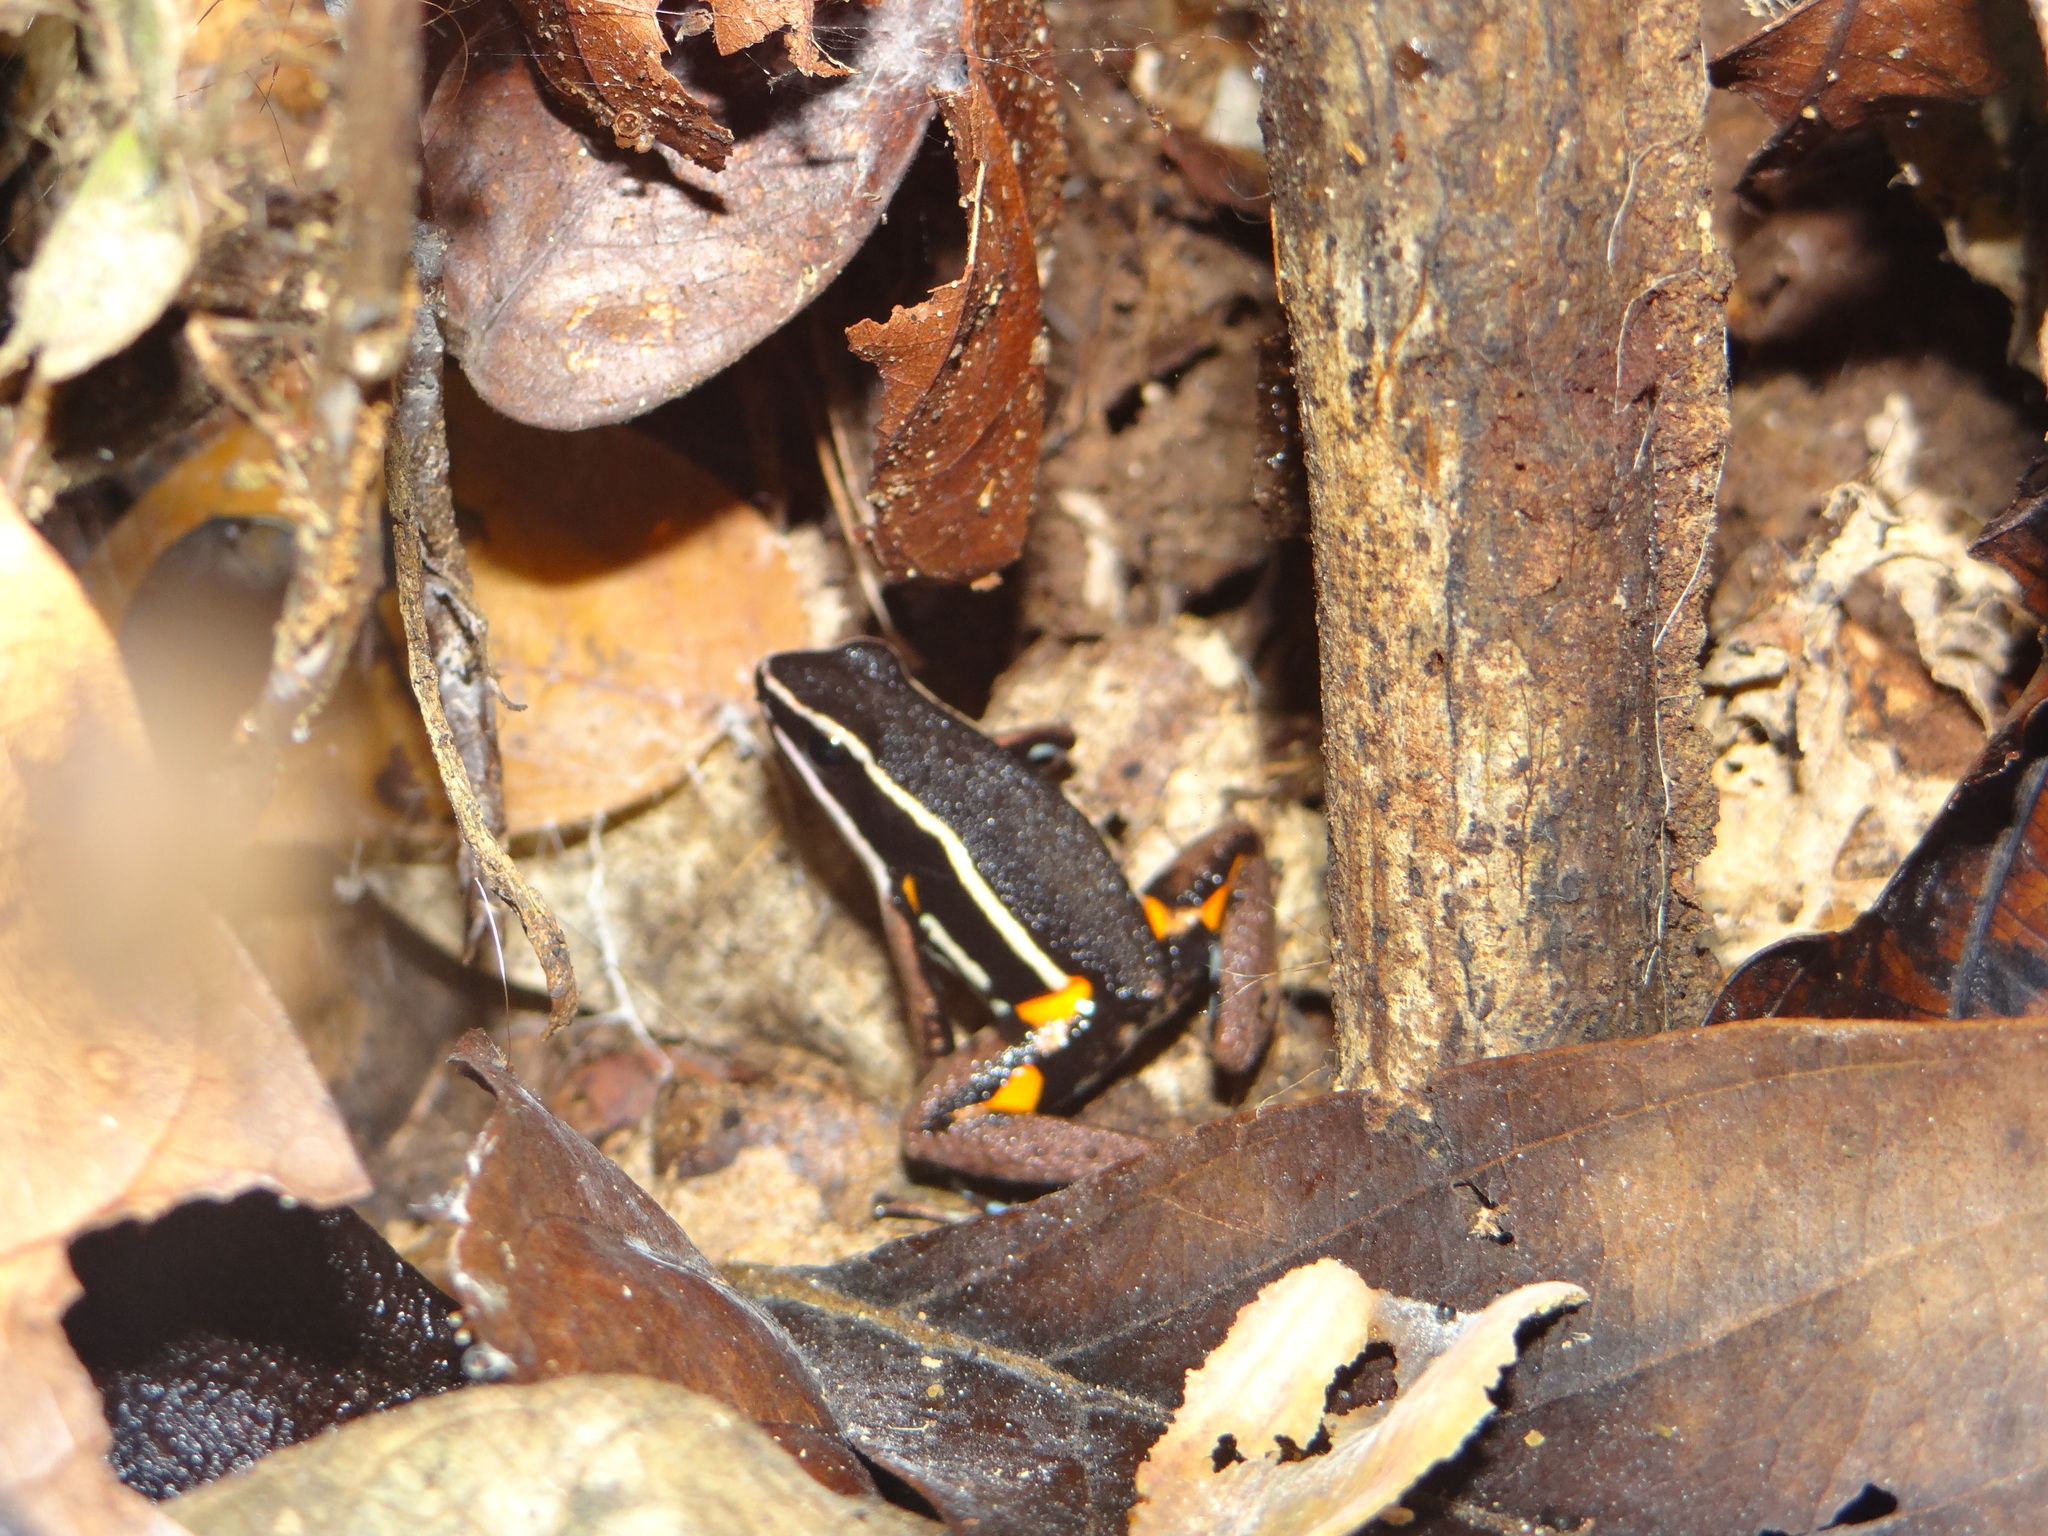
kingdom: Animalia
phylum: Chordata
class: Amphibia
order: Anura
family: Aromobatidae
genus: Allobates
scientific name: Allobates femoralis
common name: Brilliant-thighed poison frog
